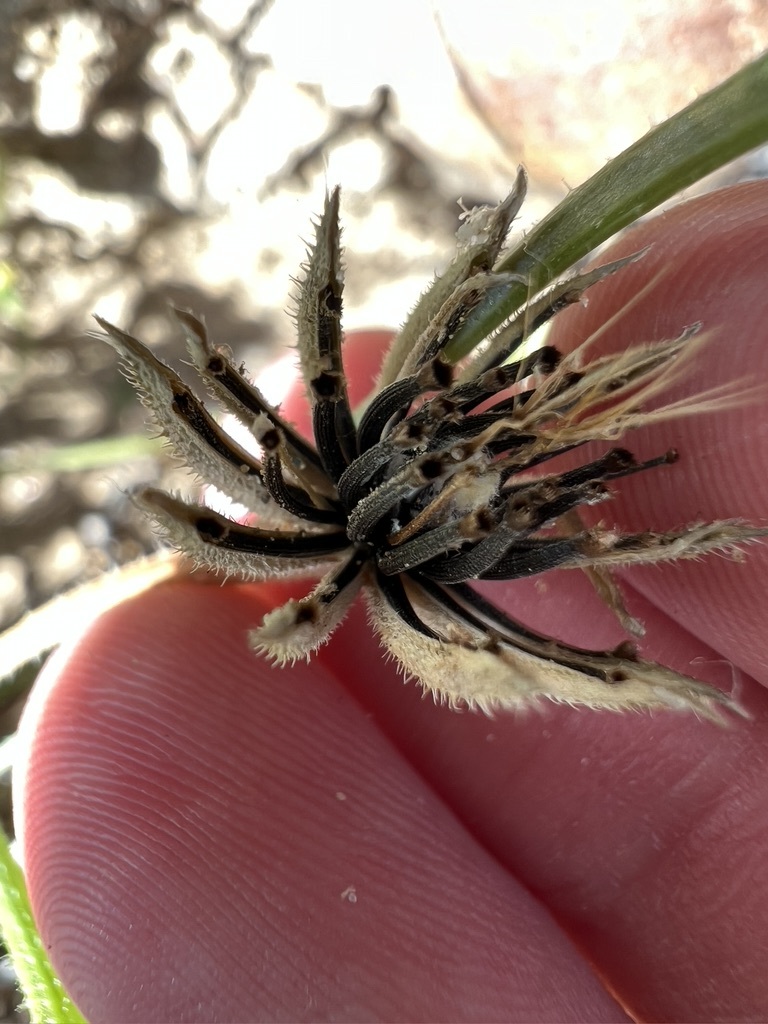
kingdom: Plantae
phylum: Tracheophyta
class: Magnoliopsida
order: Asterales
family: Asteraceae
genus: Hedypnois
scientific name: Hedypnois rhagadioloides
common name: Cretan weed
